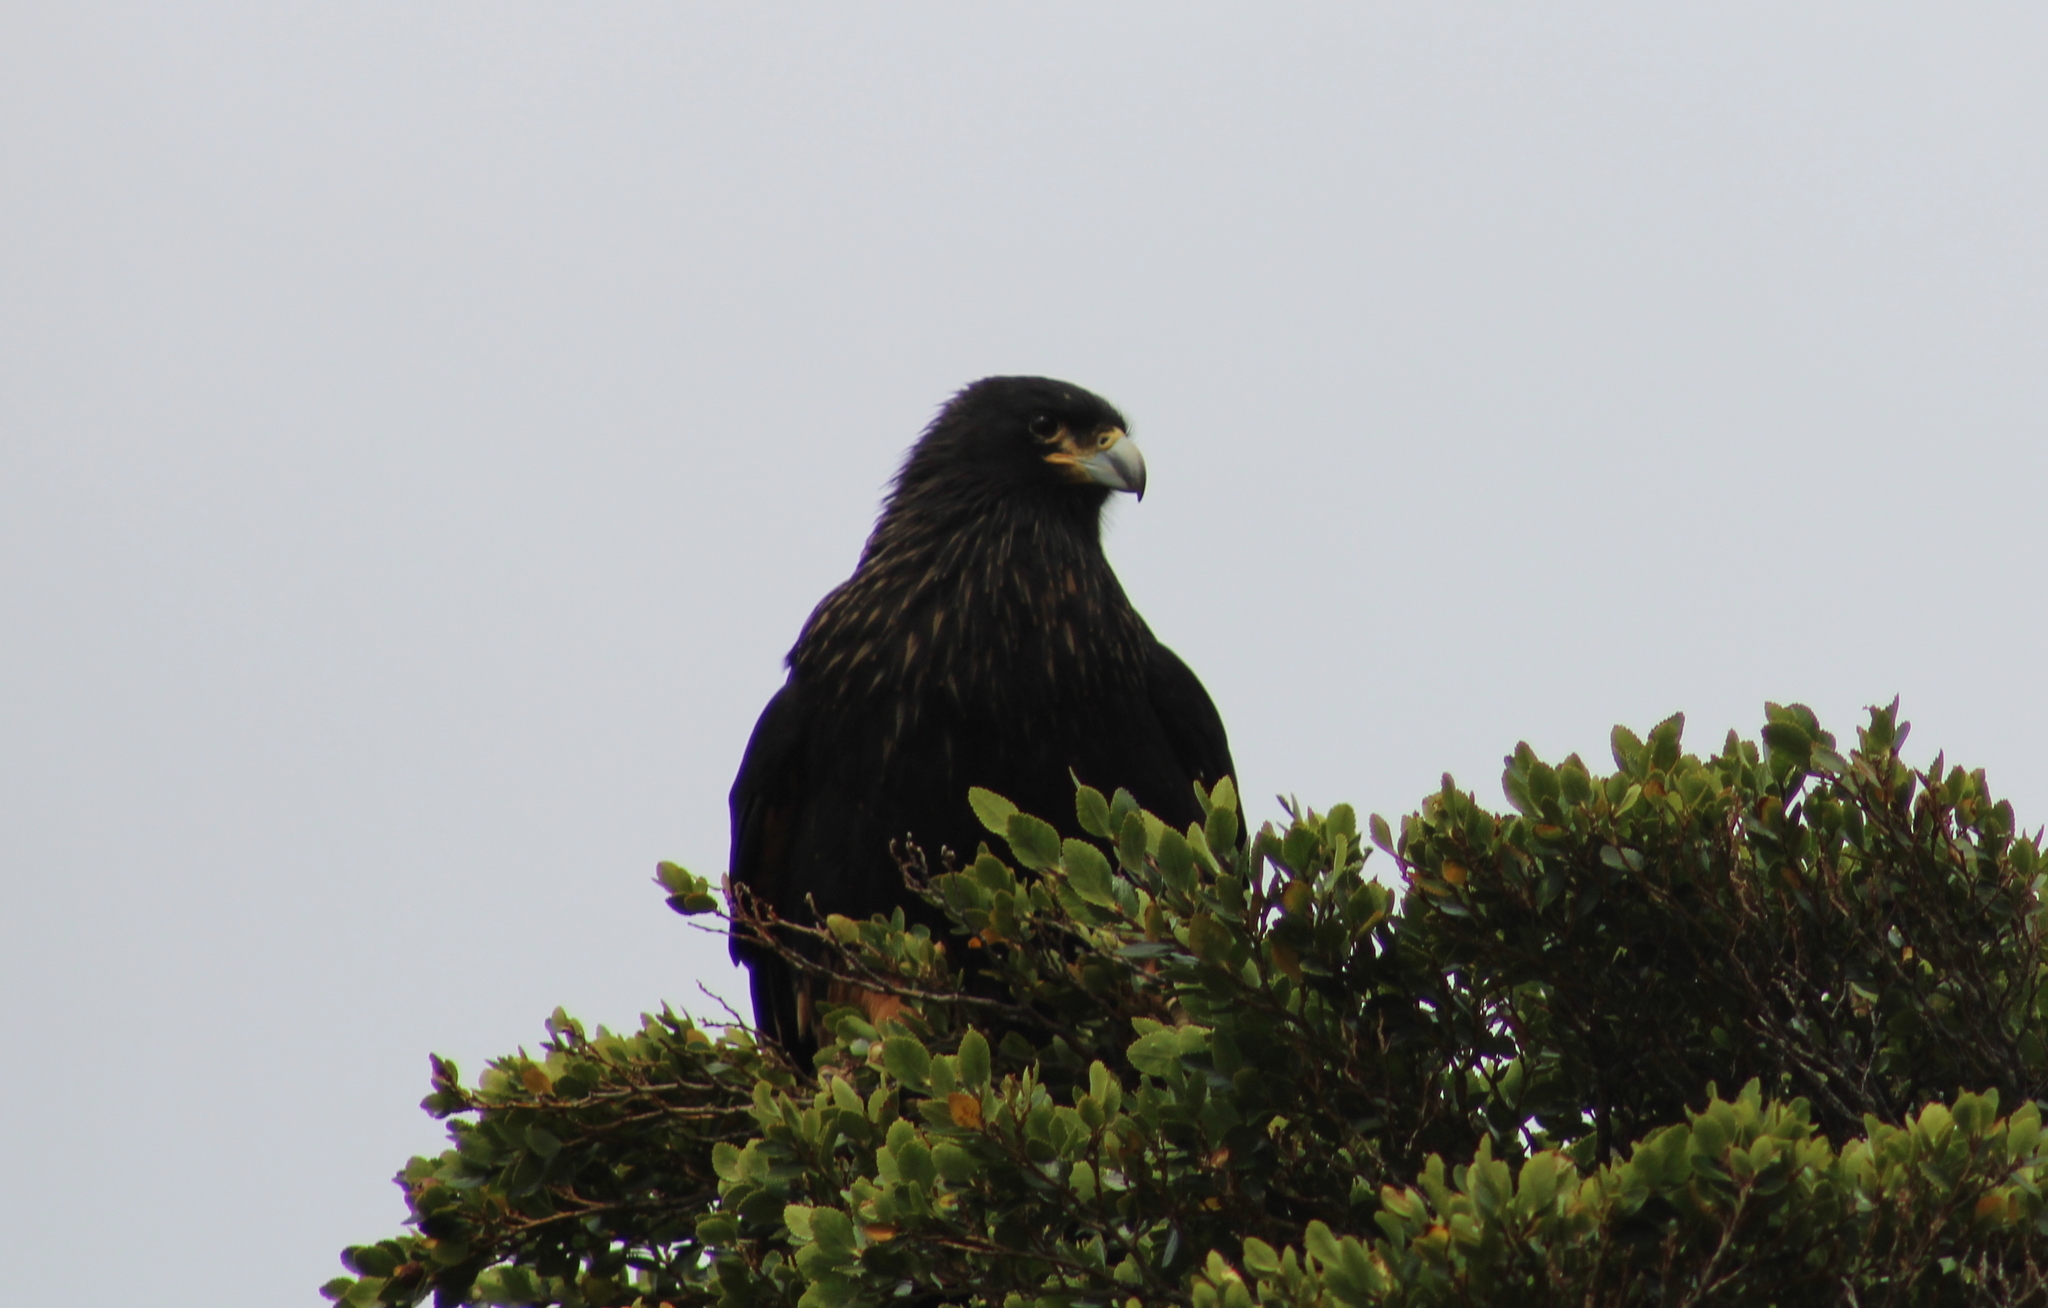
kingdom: Animalia
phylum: Chordata
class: Aves
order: Falconiformes
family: Falconidae
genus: Daptrius
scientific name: Daptrius
